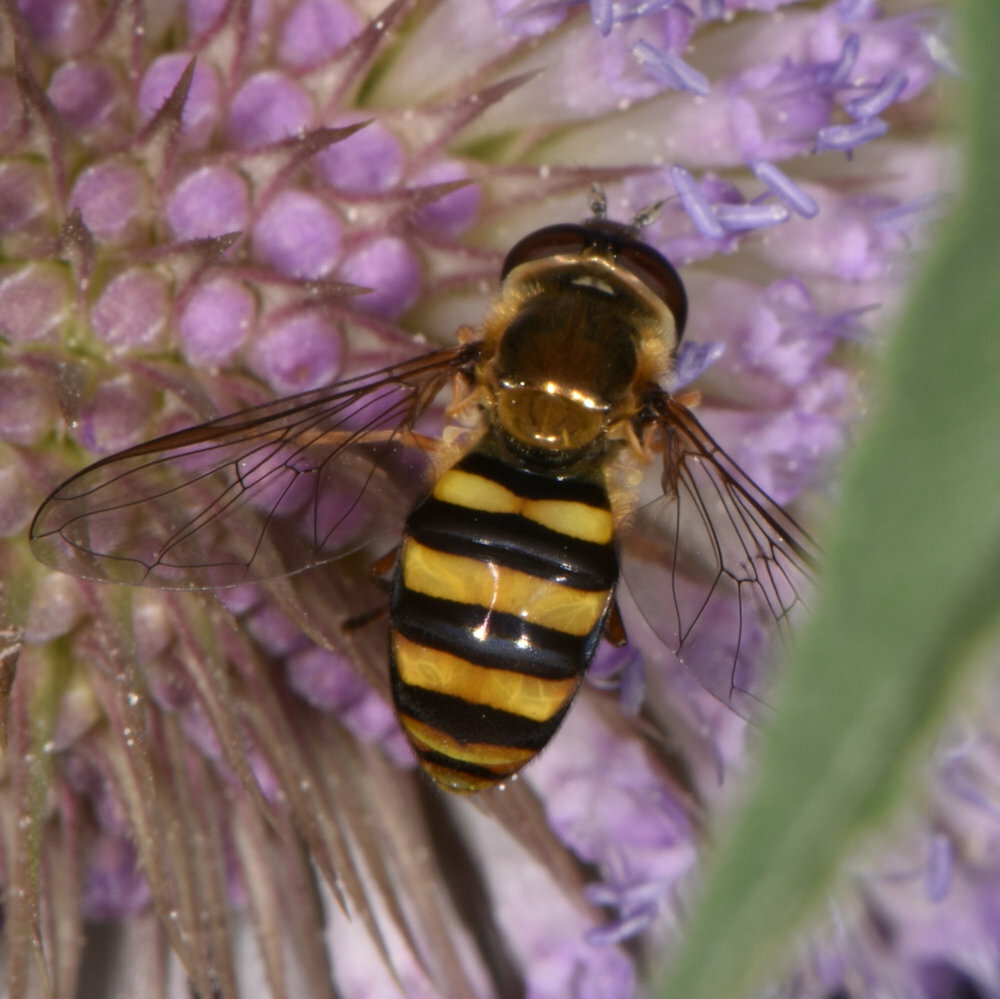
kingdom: Animalia
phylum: Arthropoda
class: Insecta
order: Diptera
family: Syrphidae
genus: Eupeodes
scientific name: Eupeodes
